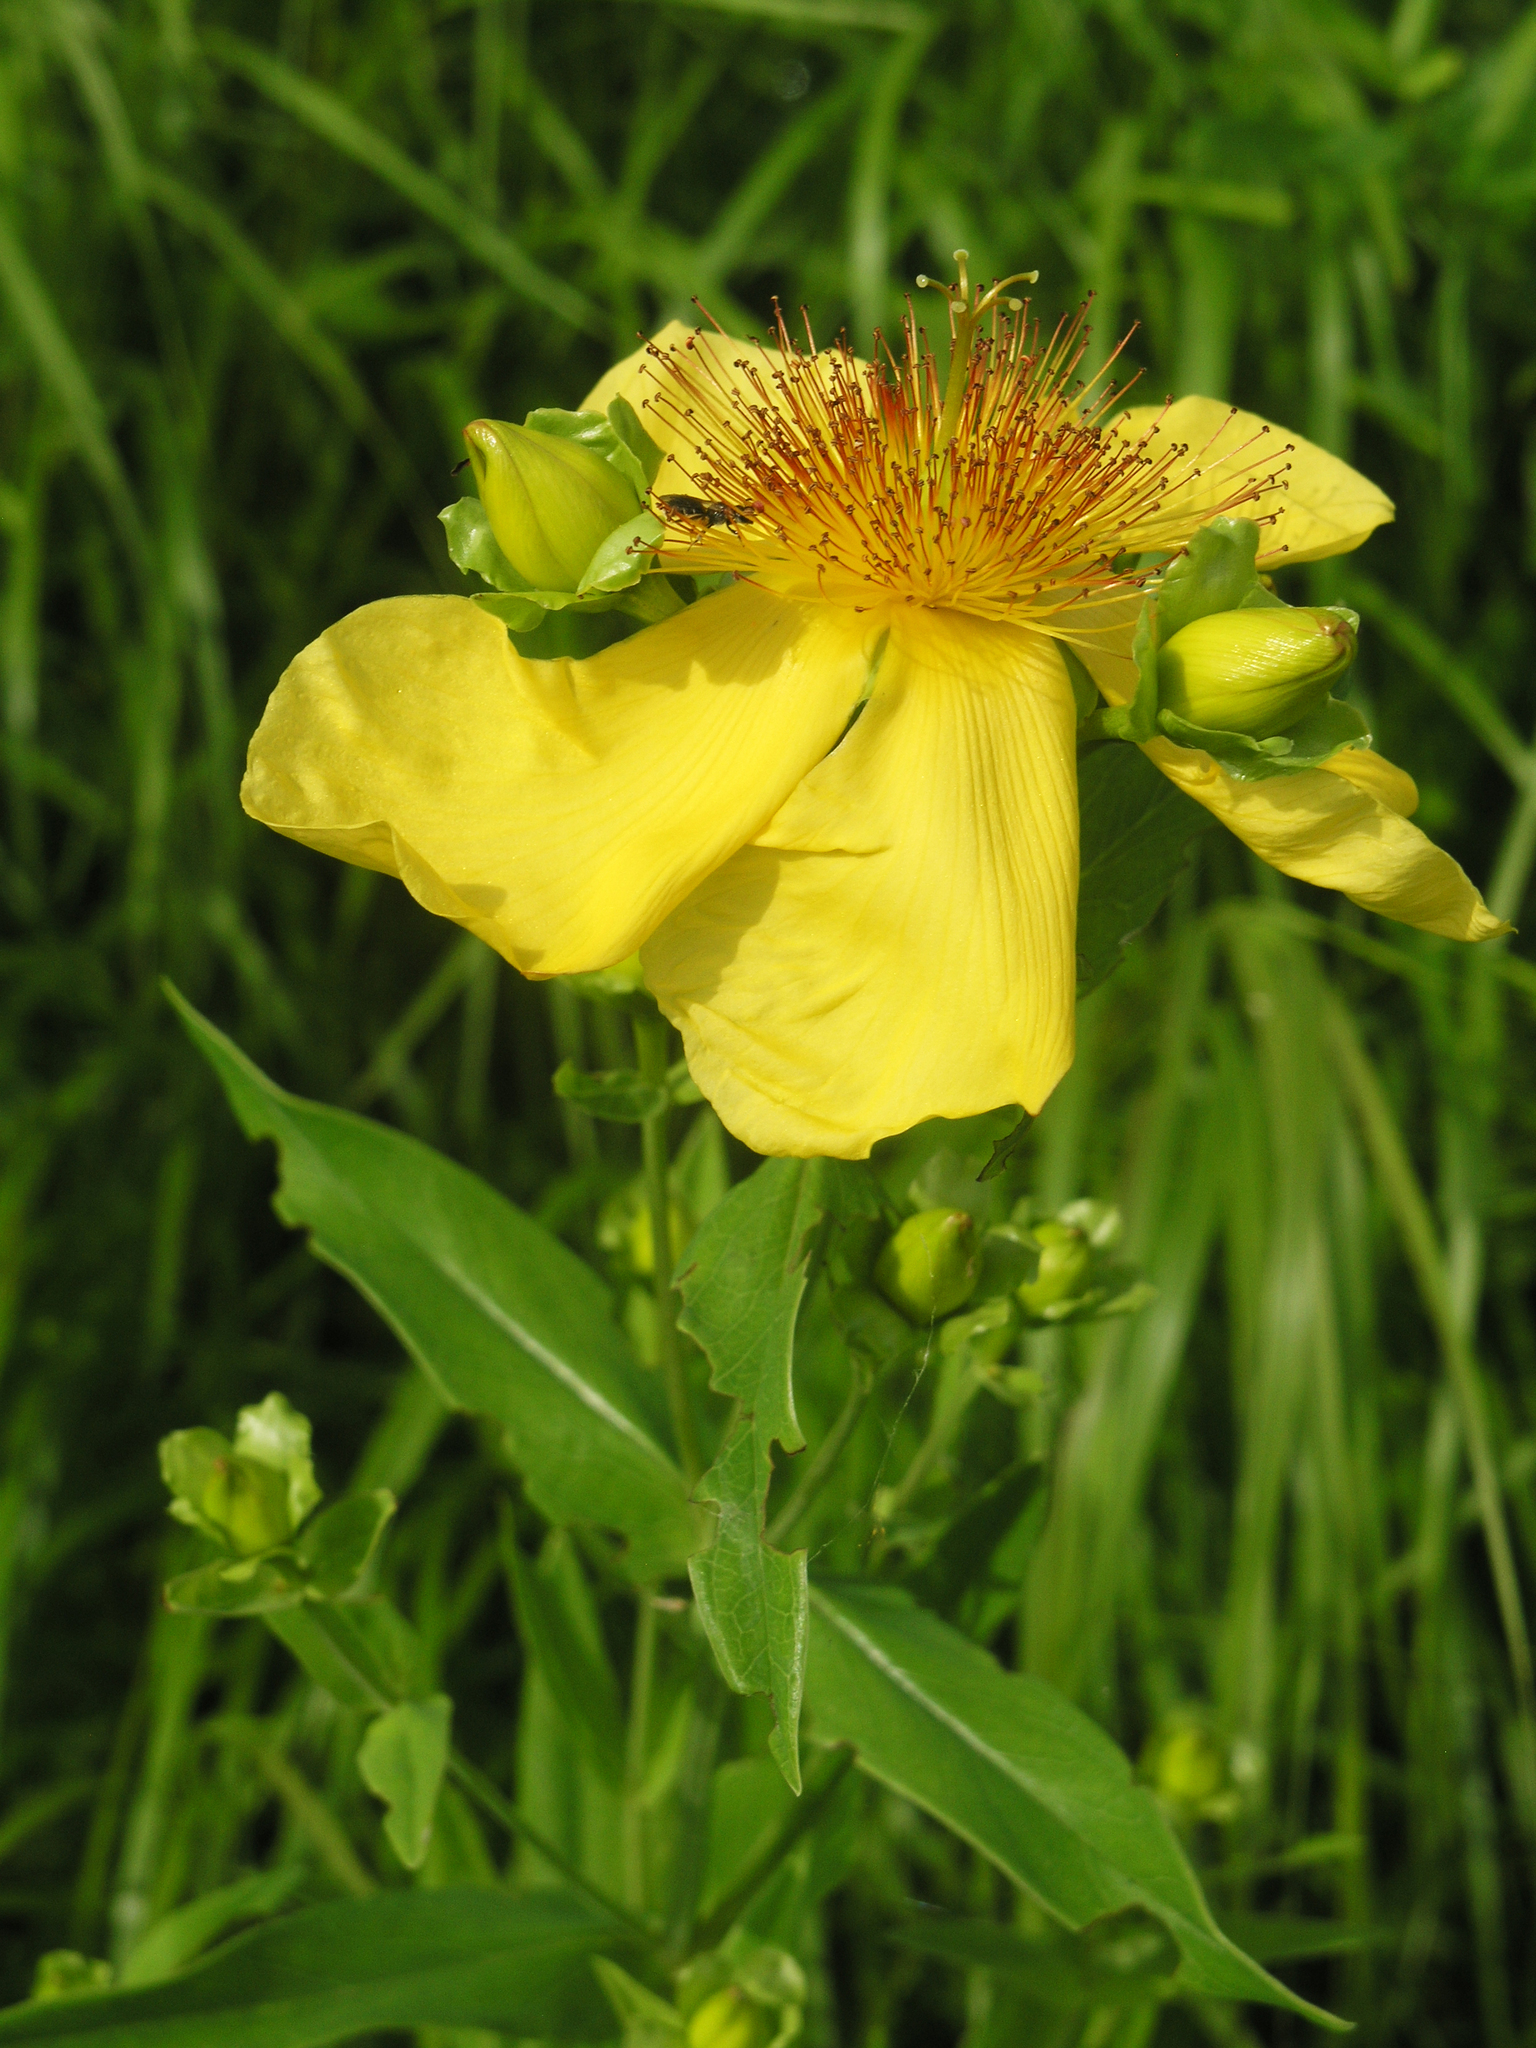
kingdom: Plantae
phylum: Tracheophyta
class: Magnoliopsida
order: Malpighiales
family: Hypericaceae
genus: Hypericum
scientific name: Hypericum ascyron
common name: Giant st. john's-wort
